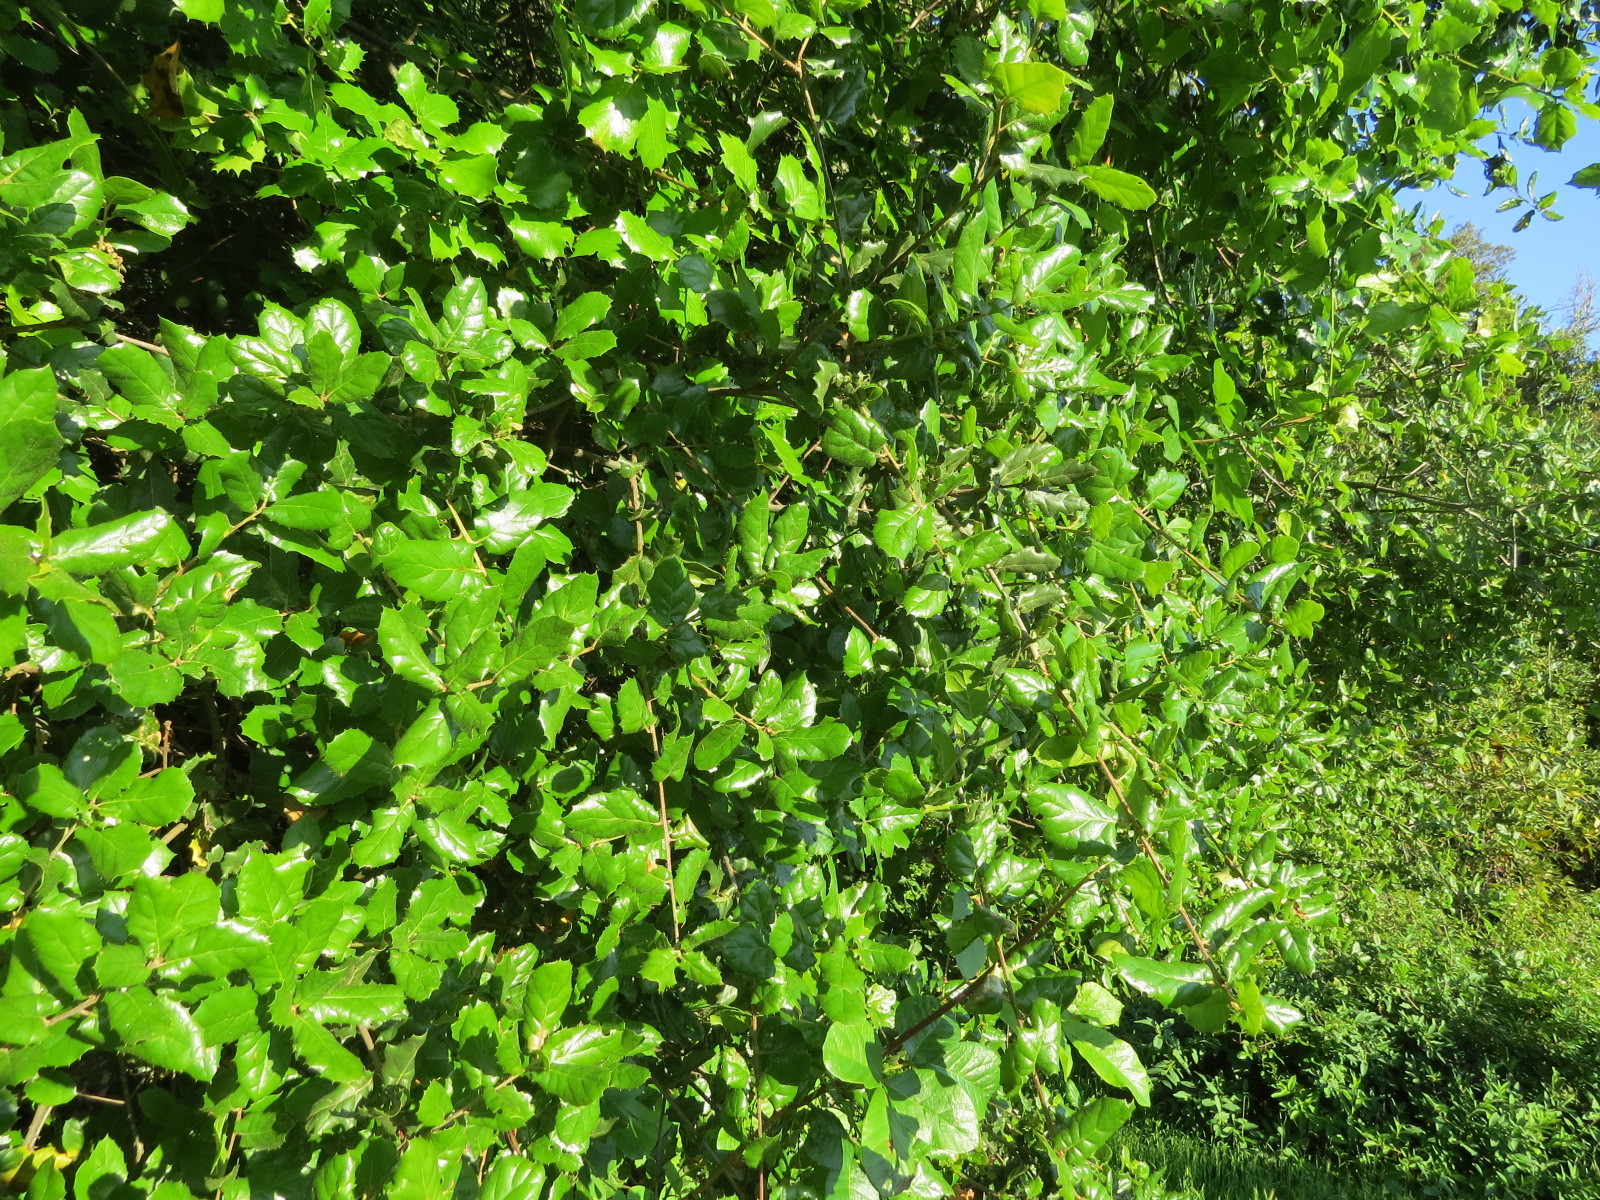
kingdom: Plantae
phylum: Tracheophyta
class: Magnoliopsida
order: Fagales
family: Fagaceae
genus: Quercus
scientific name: Quercus agrifolia
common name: California live oak
